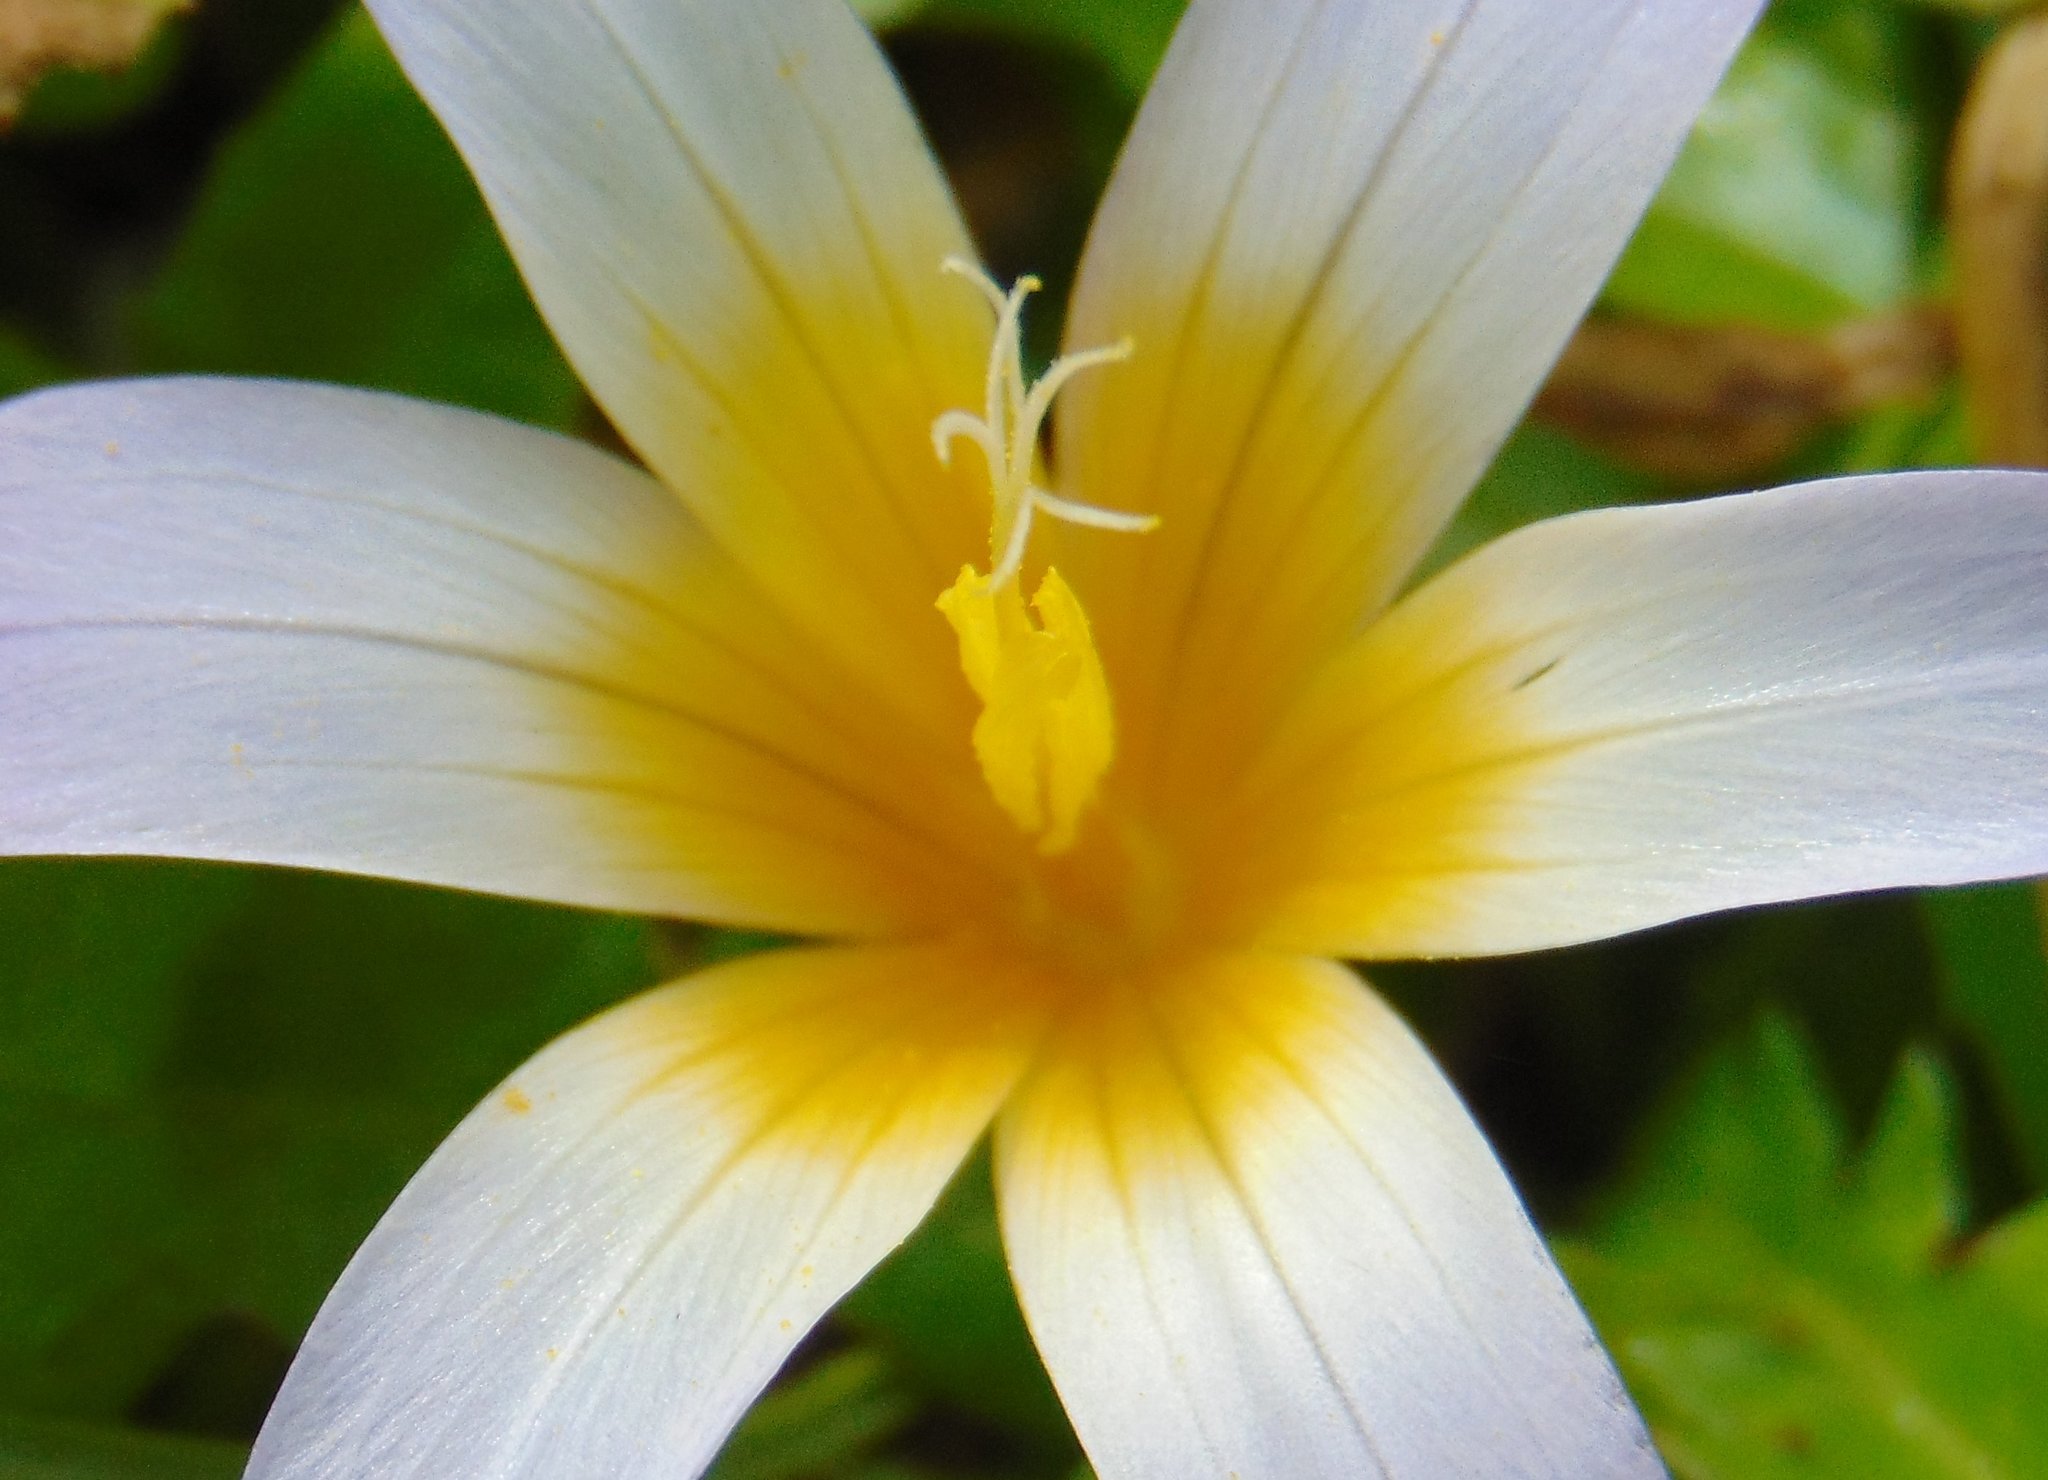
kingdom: Plantae
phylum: Tracheophyta
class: Liliopsida
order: Asparagales
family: Iridaceae
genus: Romulea
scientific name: Romulea bulbocodium
